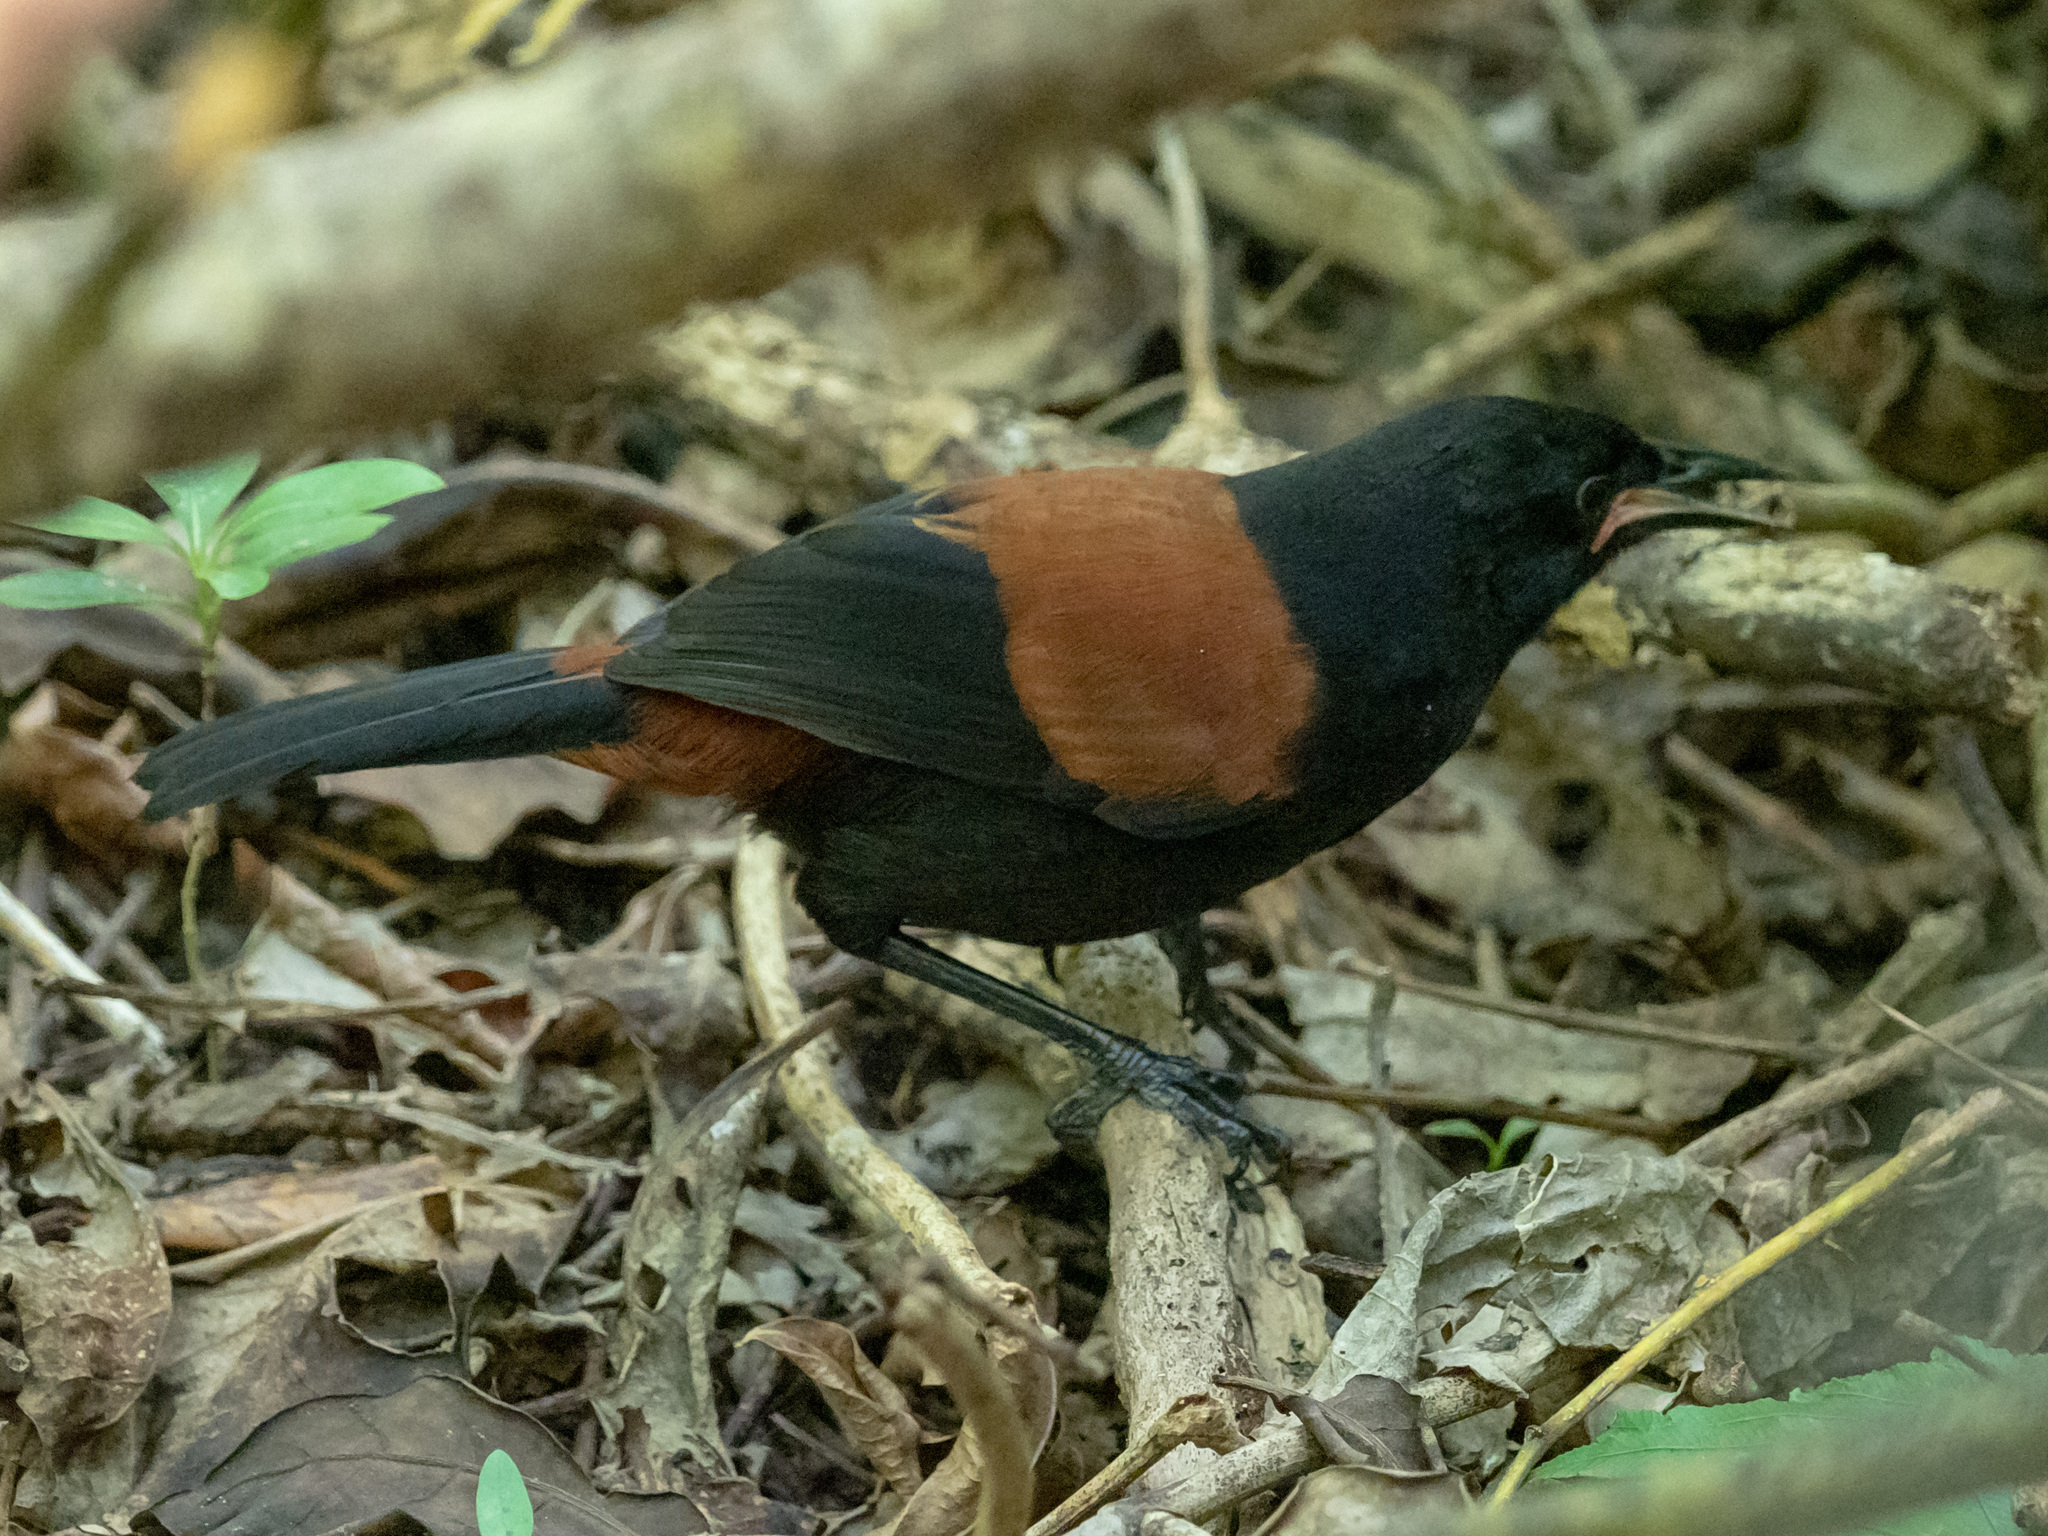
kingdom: Animalia
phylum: Chordata
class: Aves
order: Passeriformes
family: Callaeatidae
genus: Philesturnus
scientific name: Philesturnus carunculatus
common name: South island saddleback
